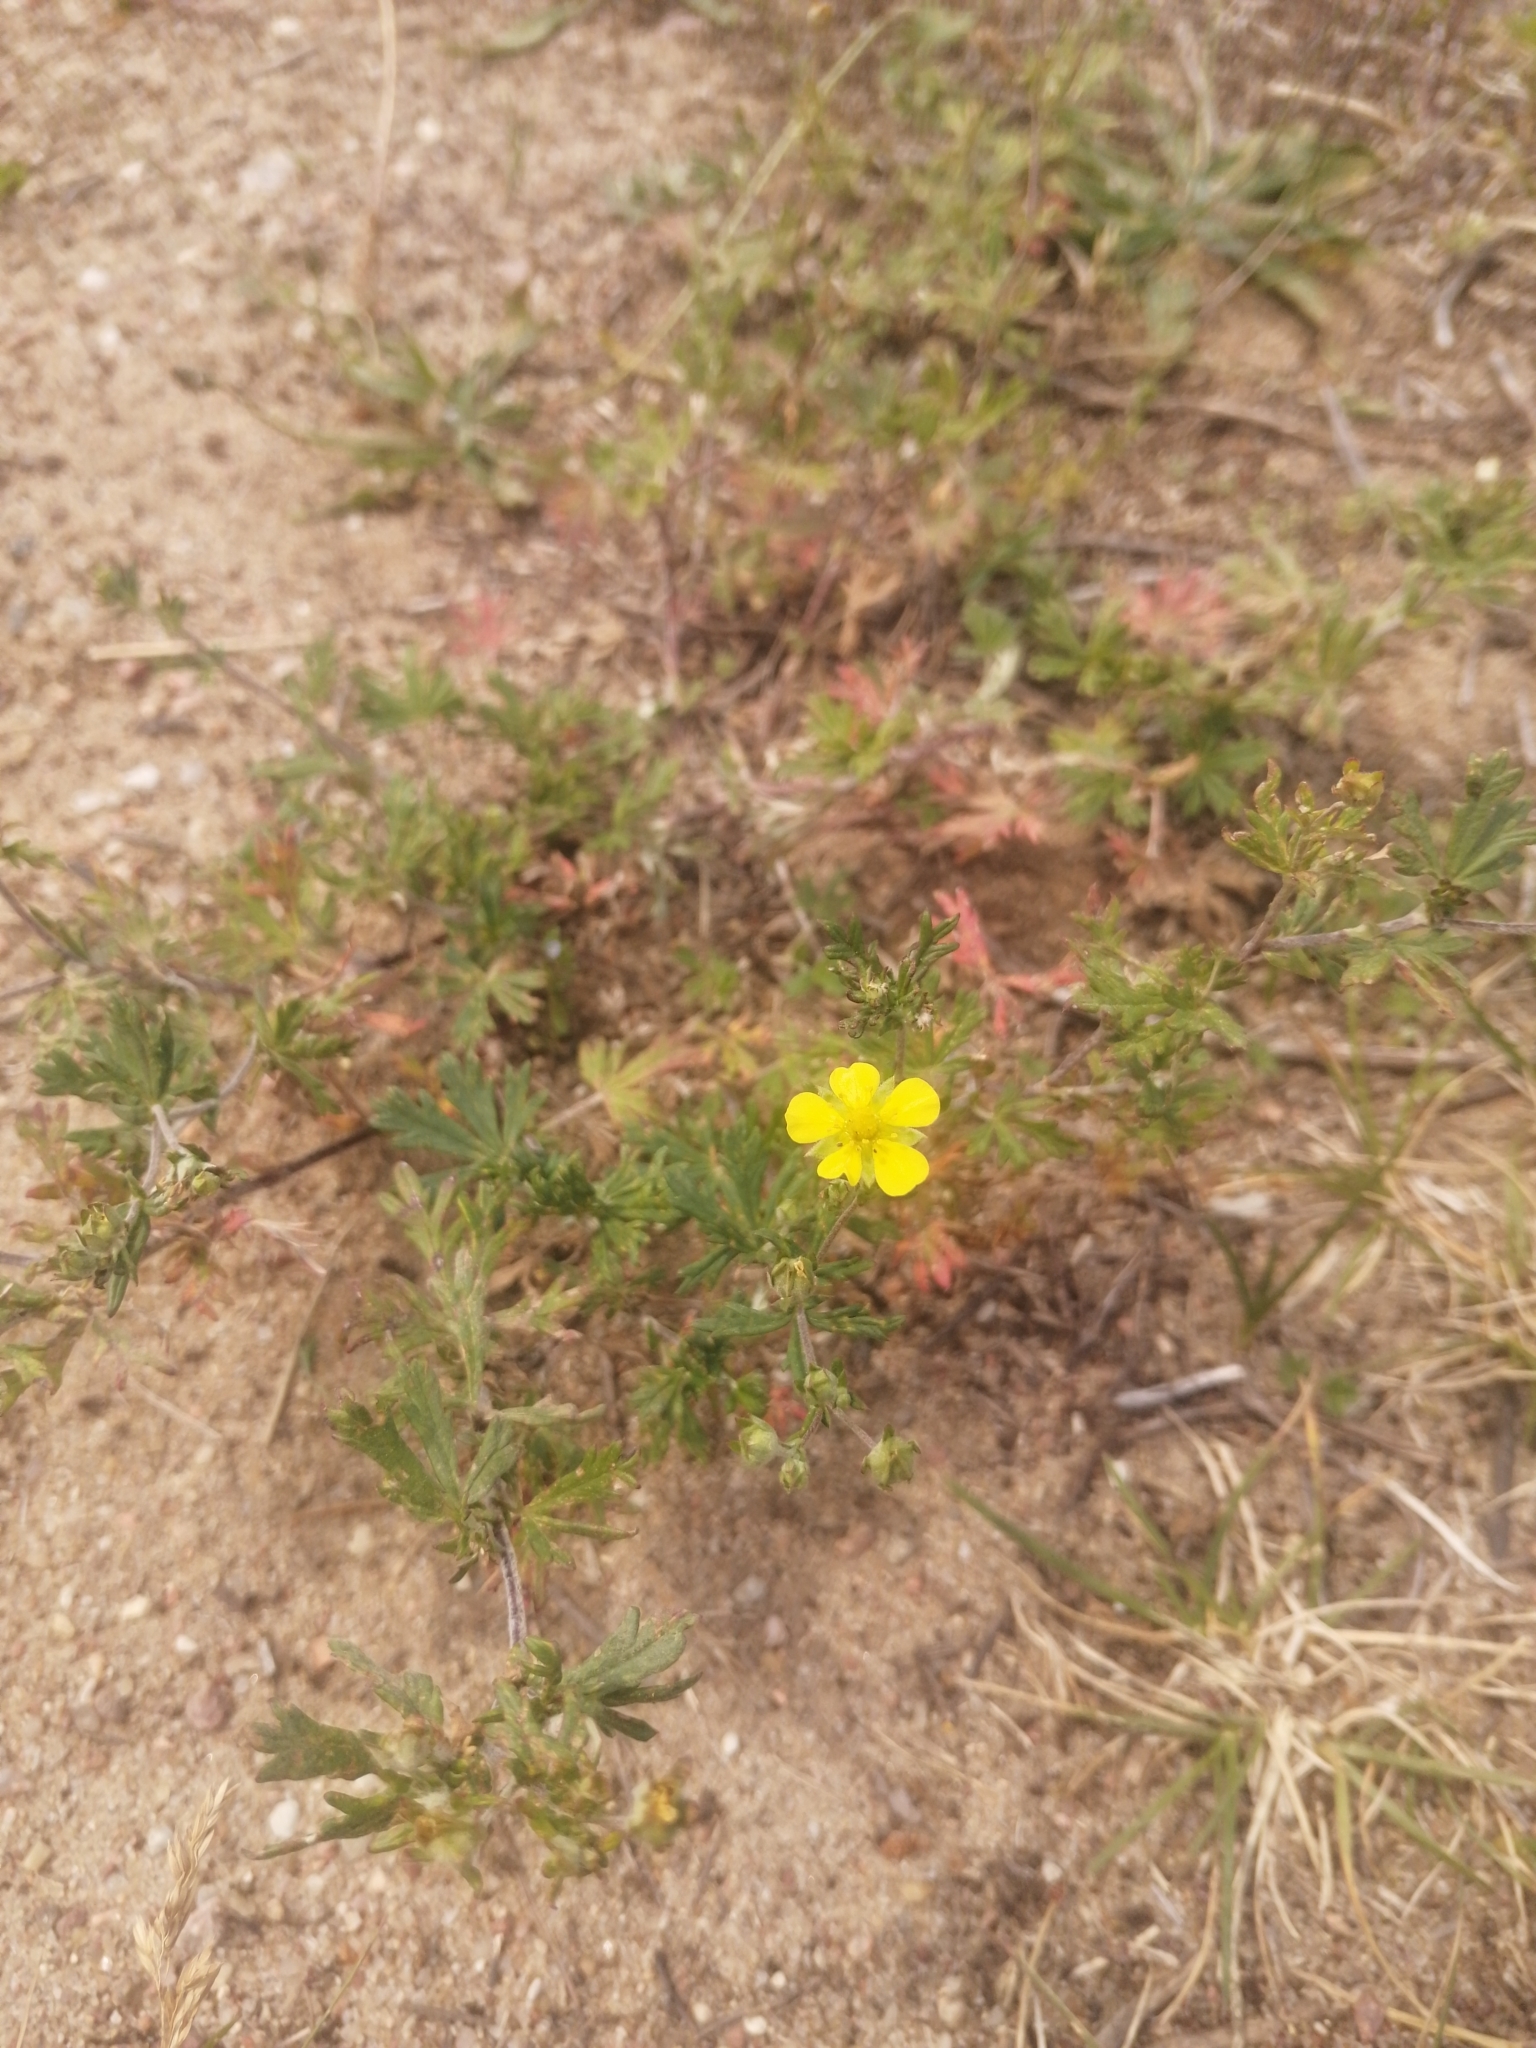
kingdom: Plantae
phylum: Tracheophyta
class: Magnoliopsida
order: Rosales
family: Rosaceae
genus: Potentilla
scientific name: Potentilla neglecta
